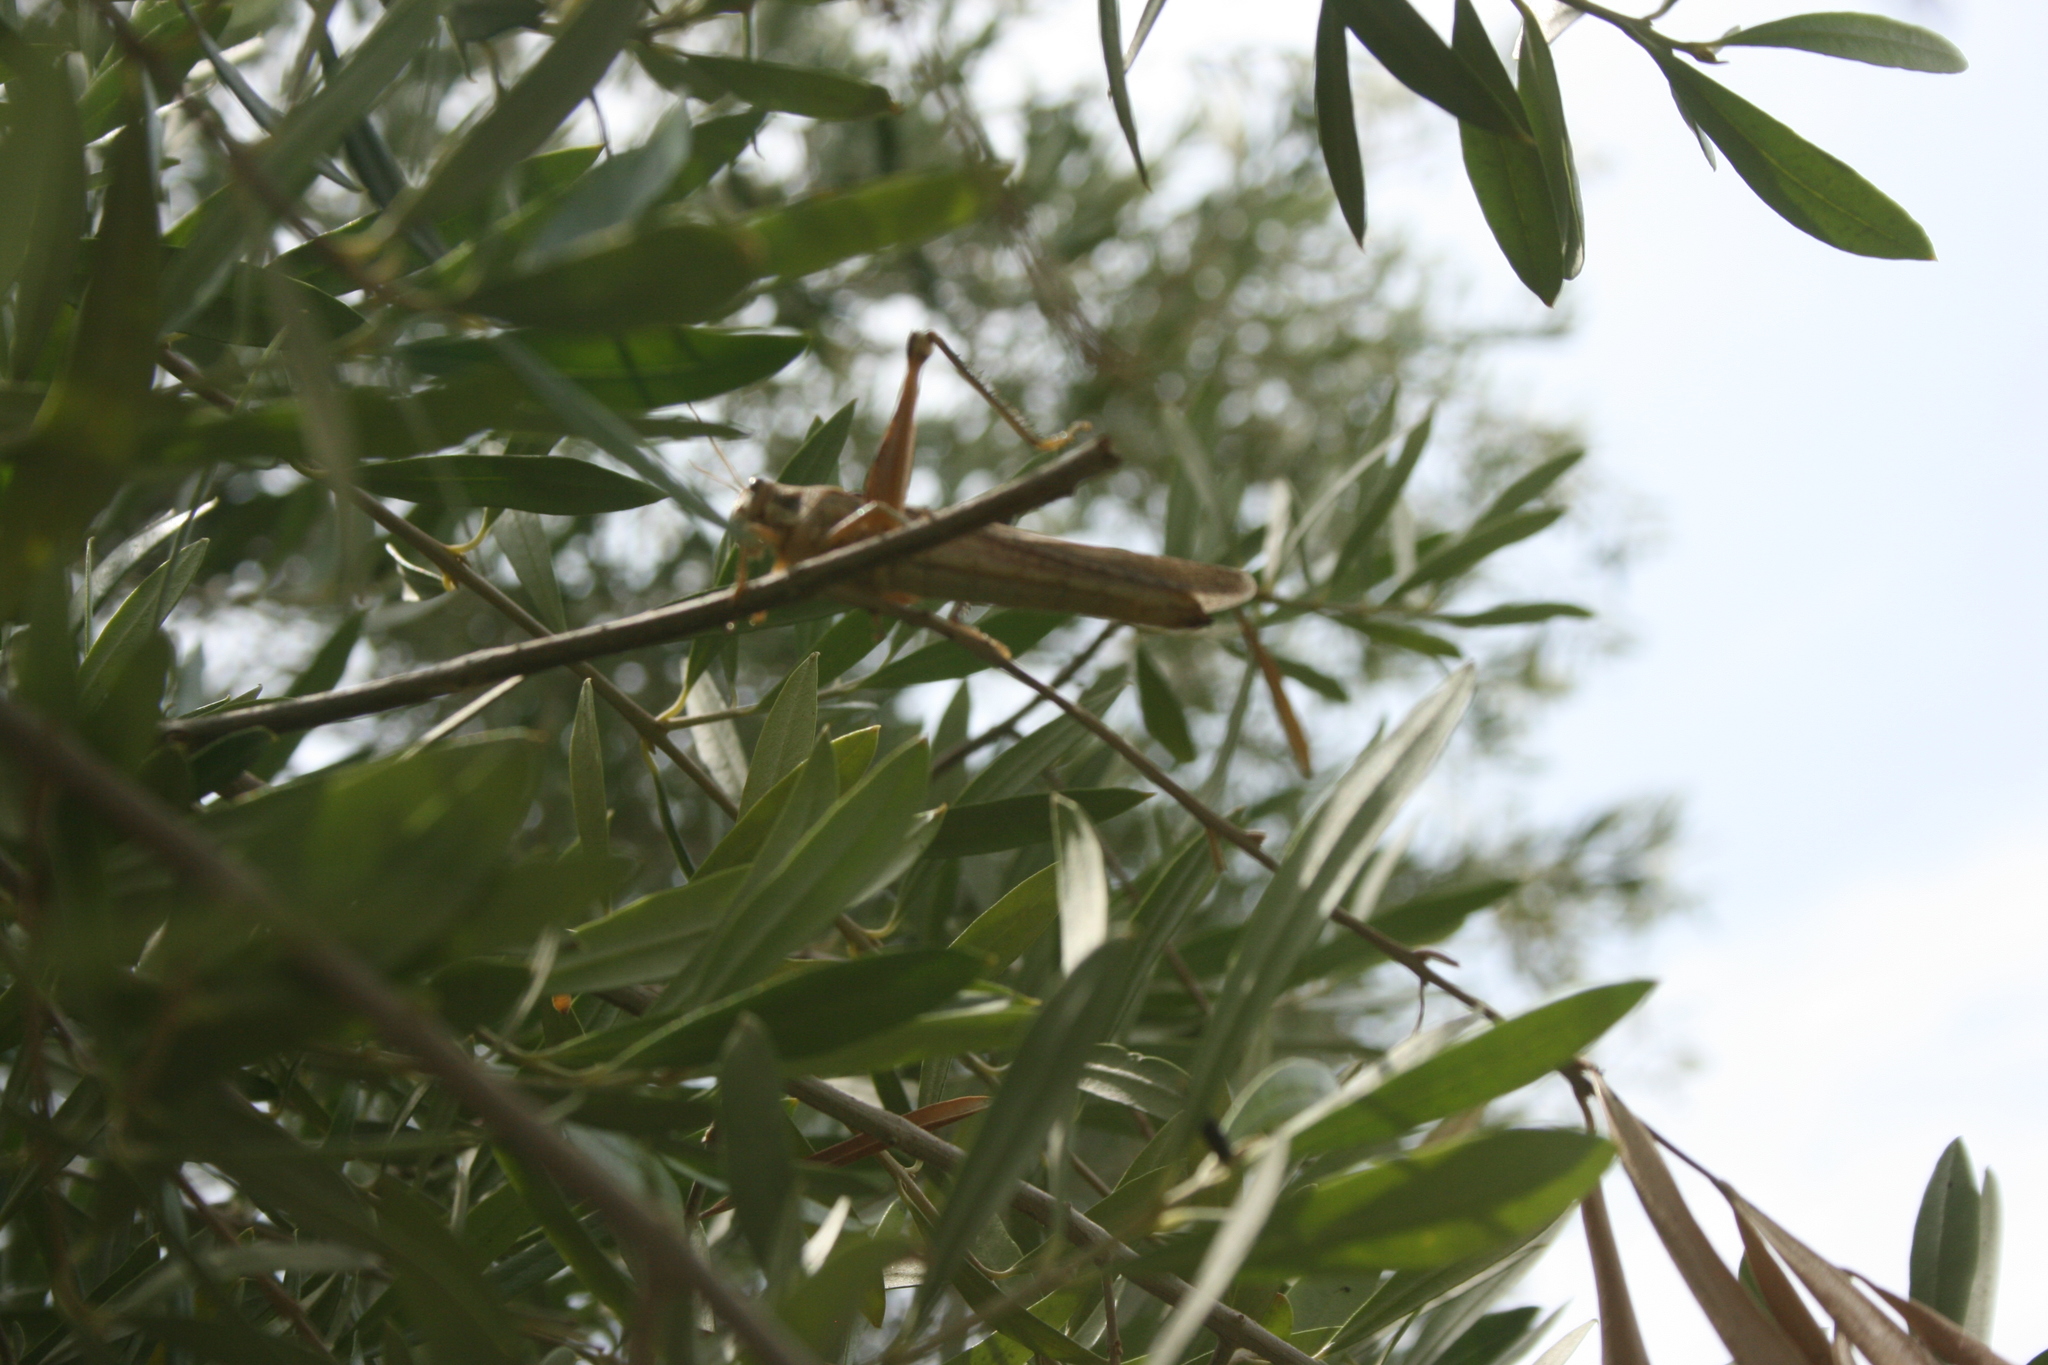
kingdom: Animalia
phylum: Arthropoda
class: Insecta
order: Orthoptera
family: Acrididae
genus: Schistocerca
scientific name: Schistocerca nitens
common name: Vagrant grasshopper
